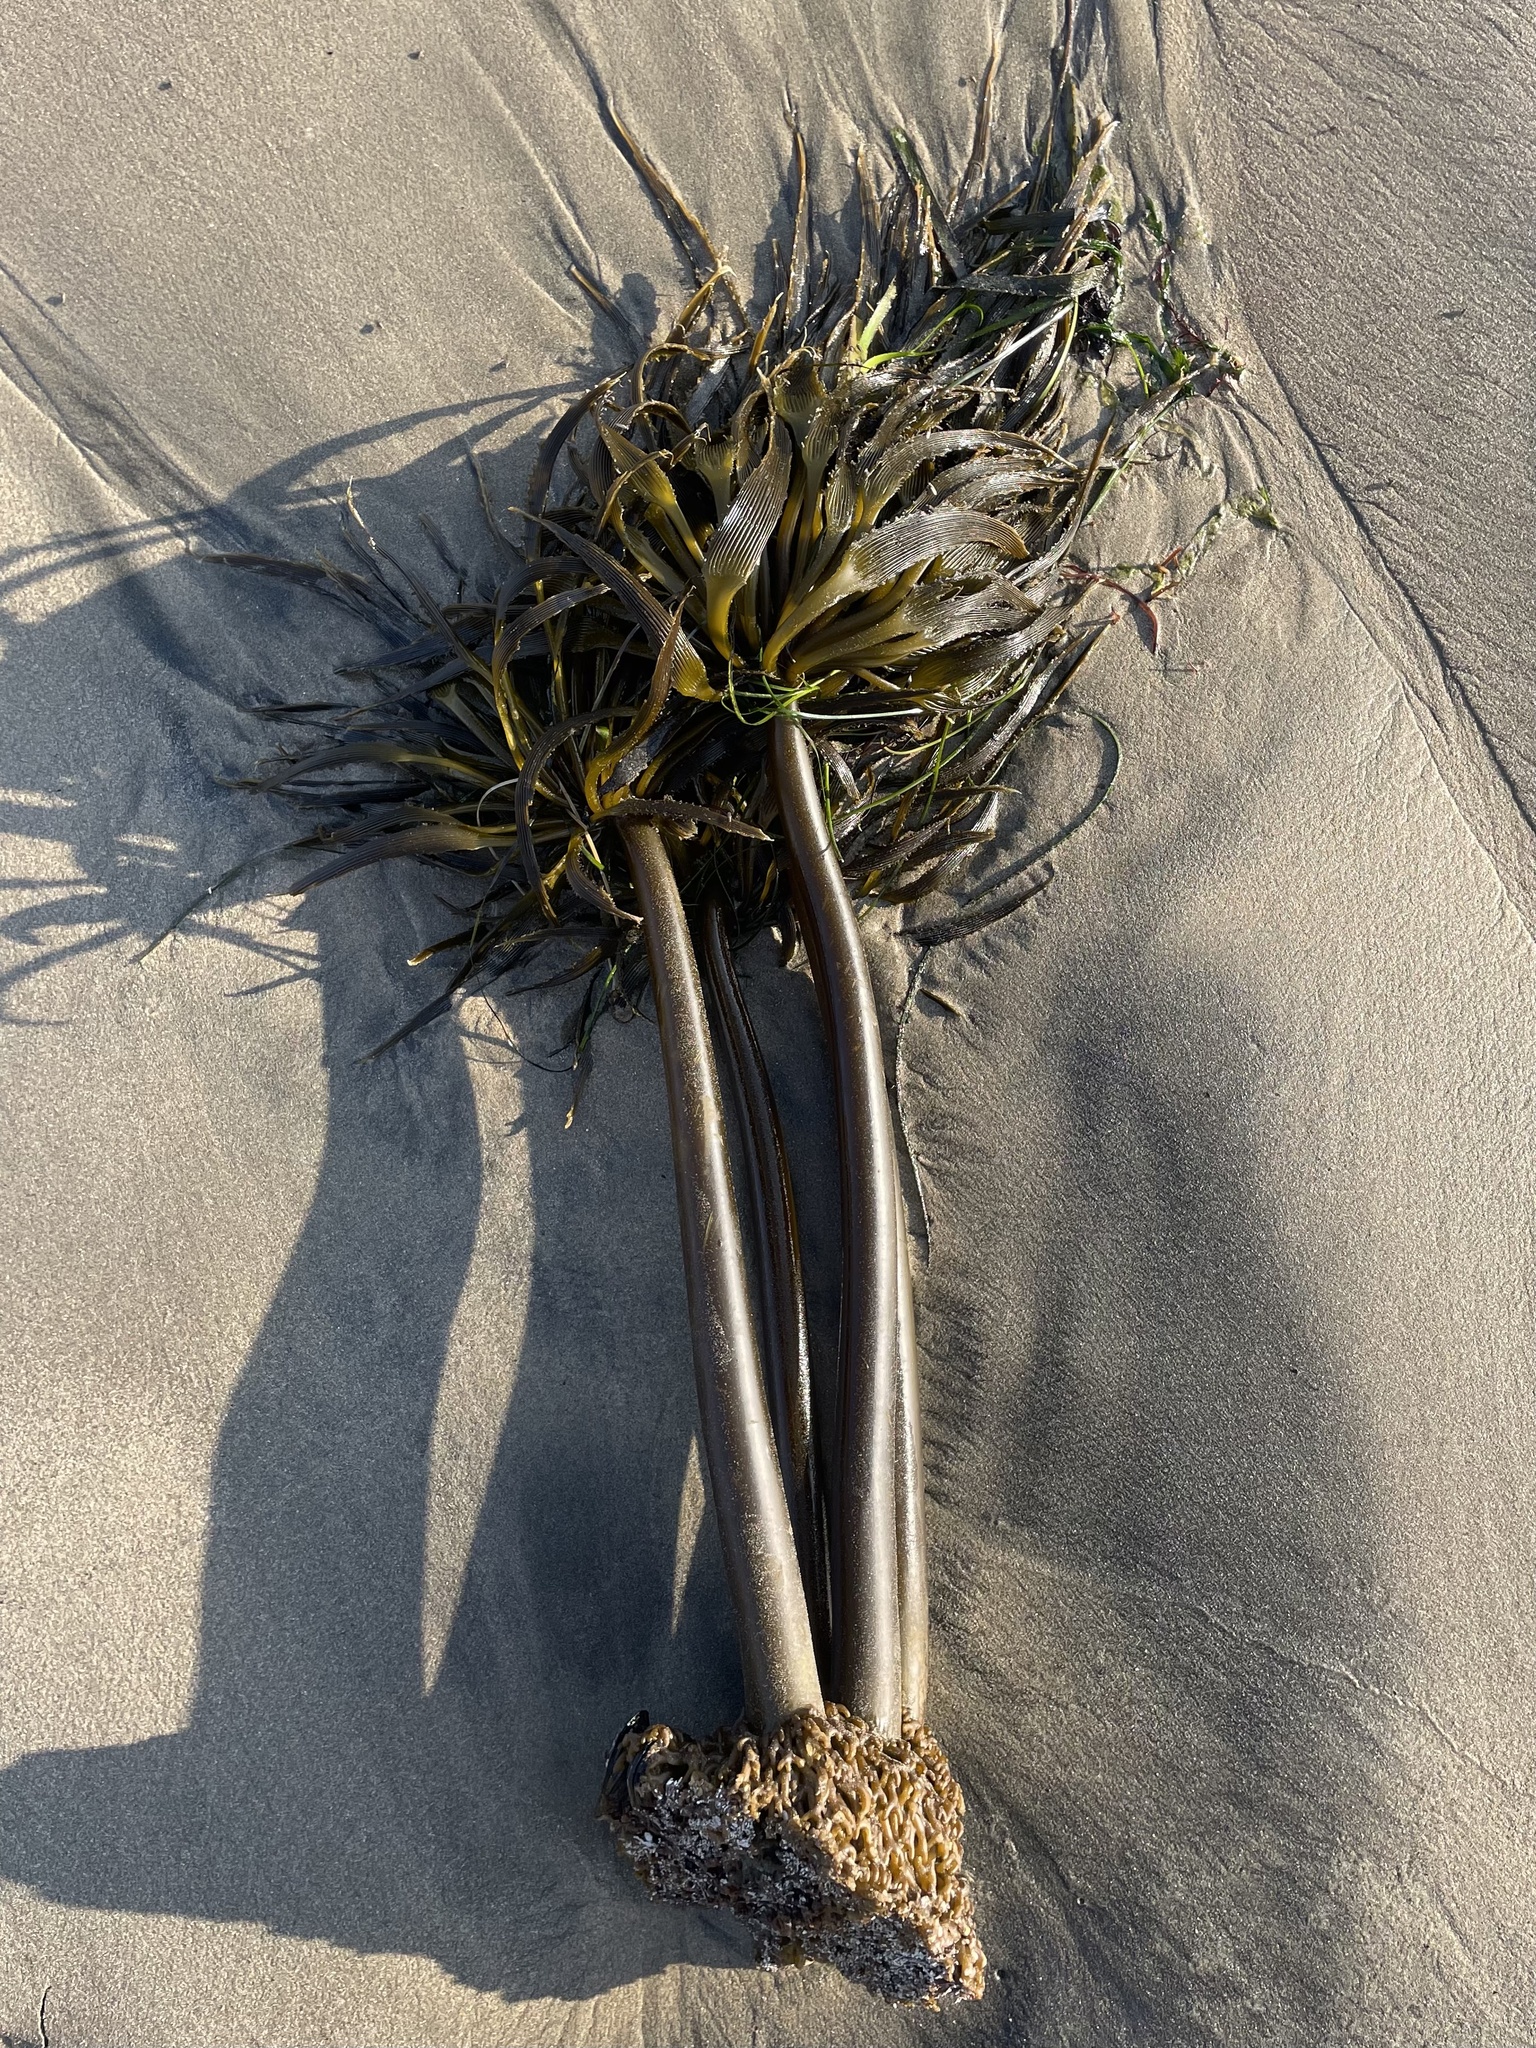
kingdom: Chromista
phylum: Ochrophyta
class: Phaeophyceae
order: Laminariales
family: Laminariaceae
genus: Postelsia
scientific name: Postelsia palmiformis
